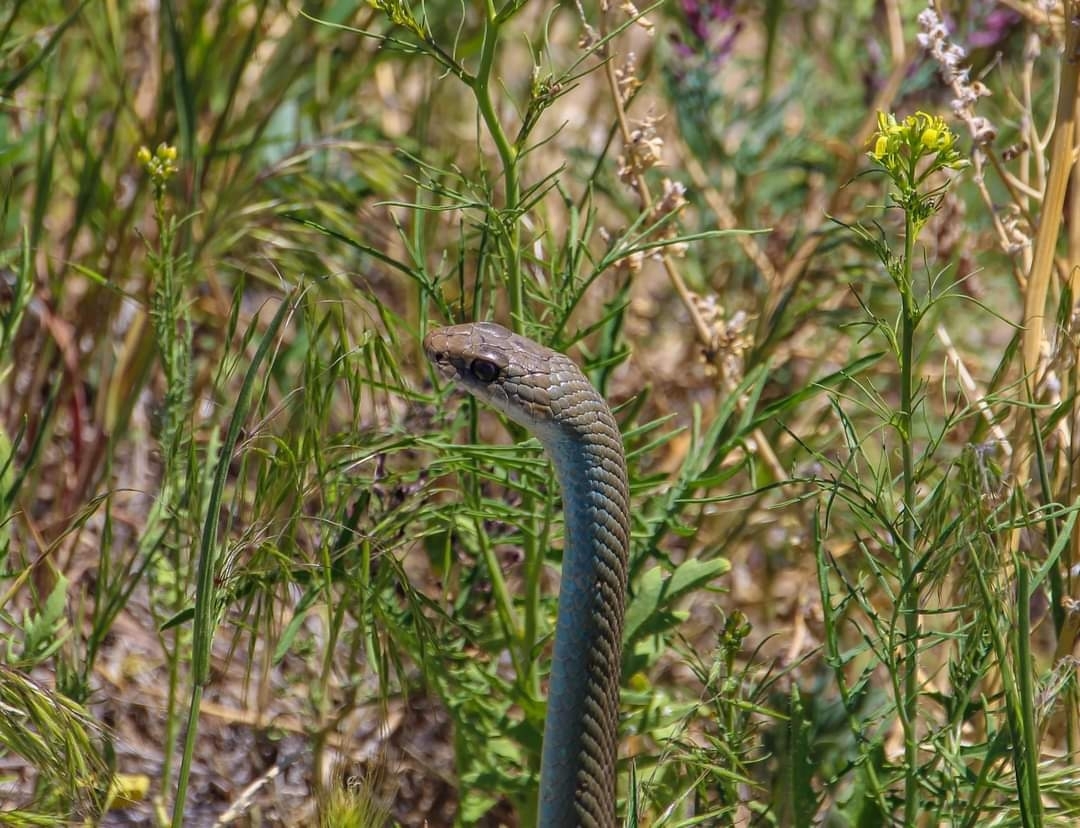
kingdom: Animalia
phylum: Chordata
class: Squamata
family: Colubridae
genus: Coluber
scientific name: Coluber constrictor
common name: Eastern racer
